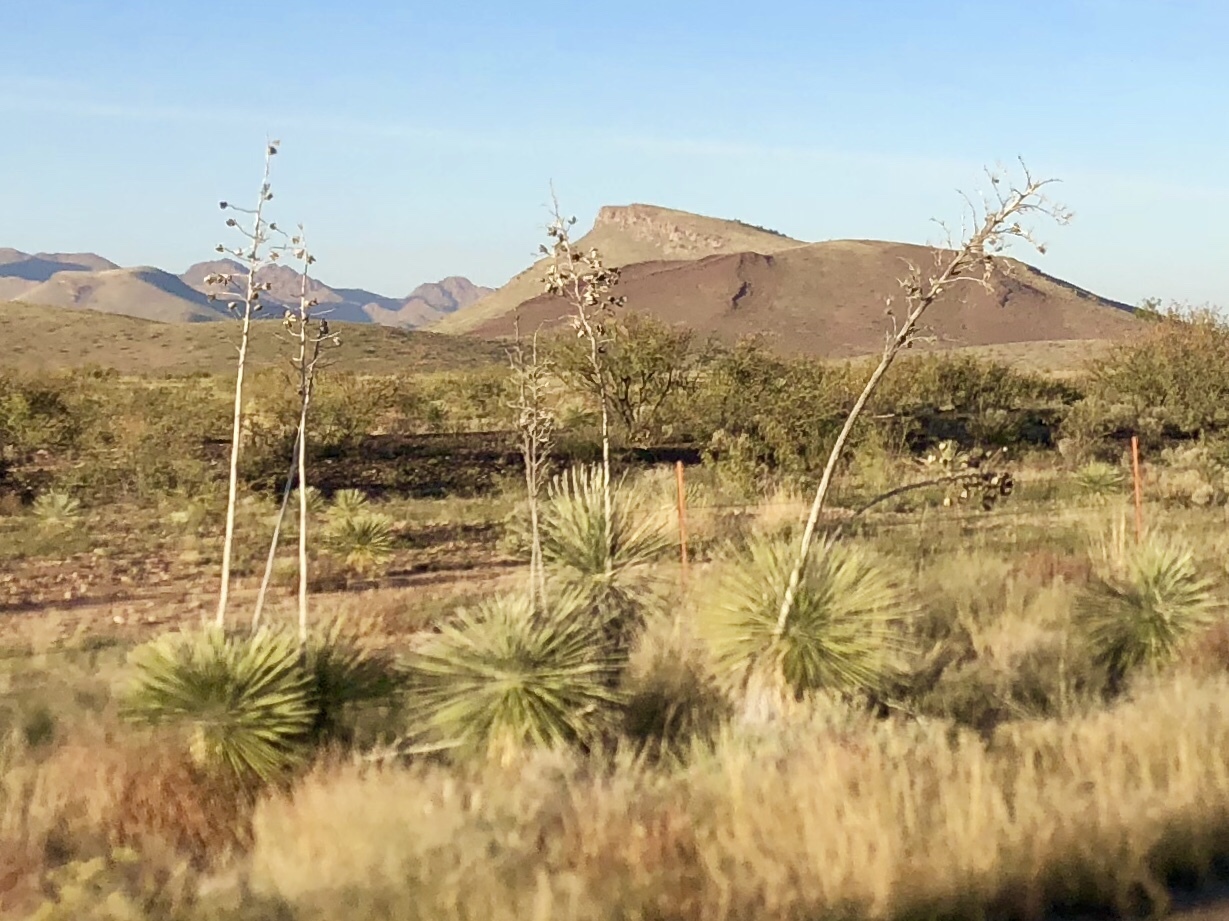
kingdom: Plantae
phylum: Tracheophyta
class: Liliopsida
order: Asparagales
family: Asparagaceae
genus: Yucca
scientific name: Yucca elata
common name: Palmella
